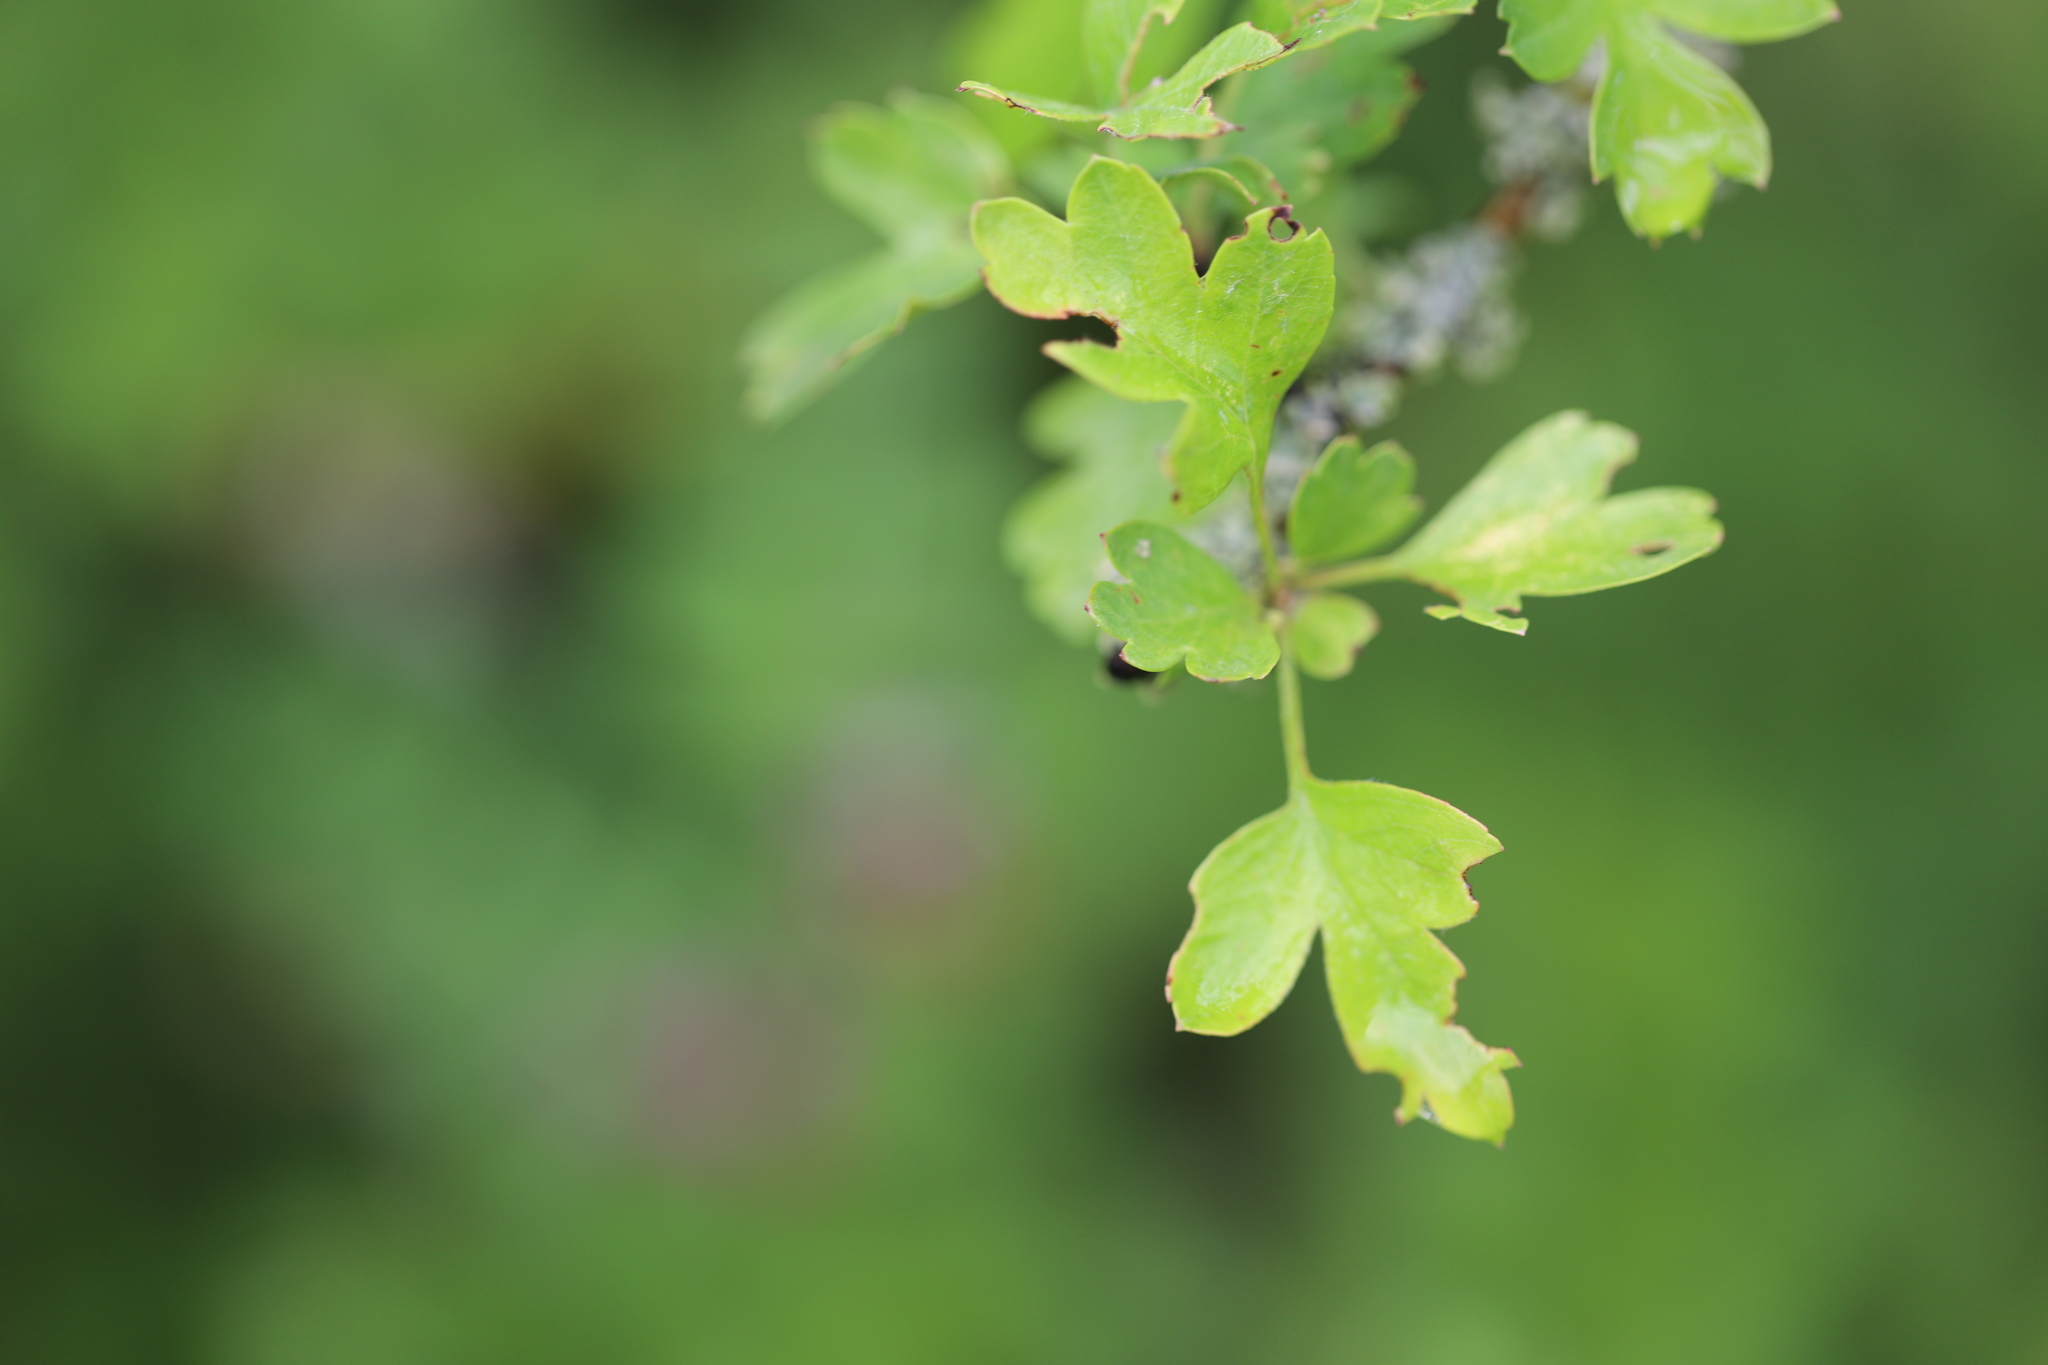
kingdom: Plantae
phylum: Tracheophyta
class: Magnoliopsida
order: Rosales
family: Rosaceae
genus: Crataegus
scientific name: Crataegus monogyna
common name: Hawthorn
